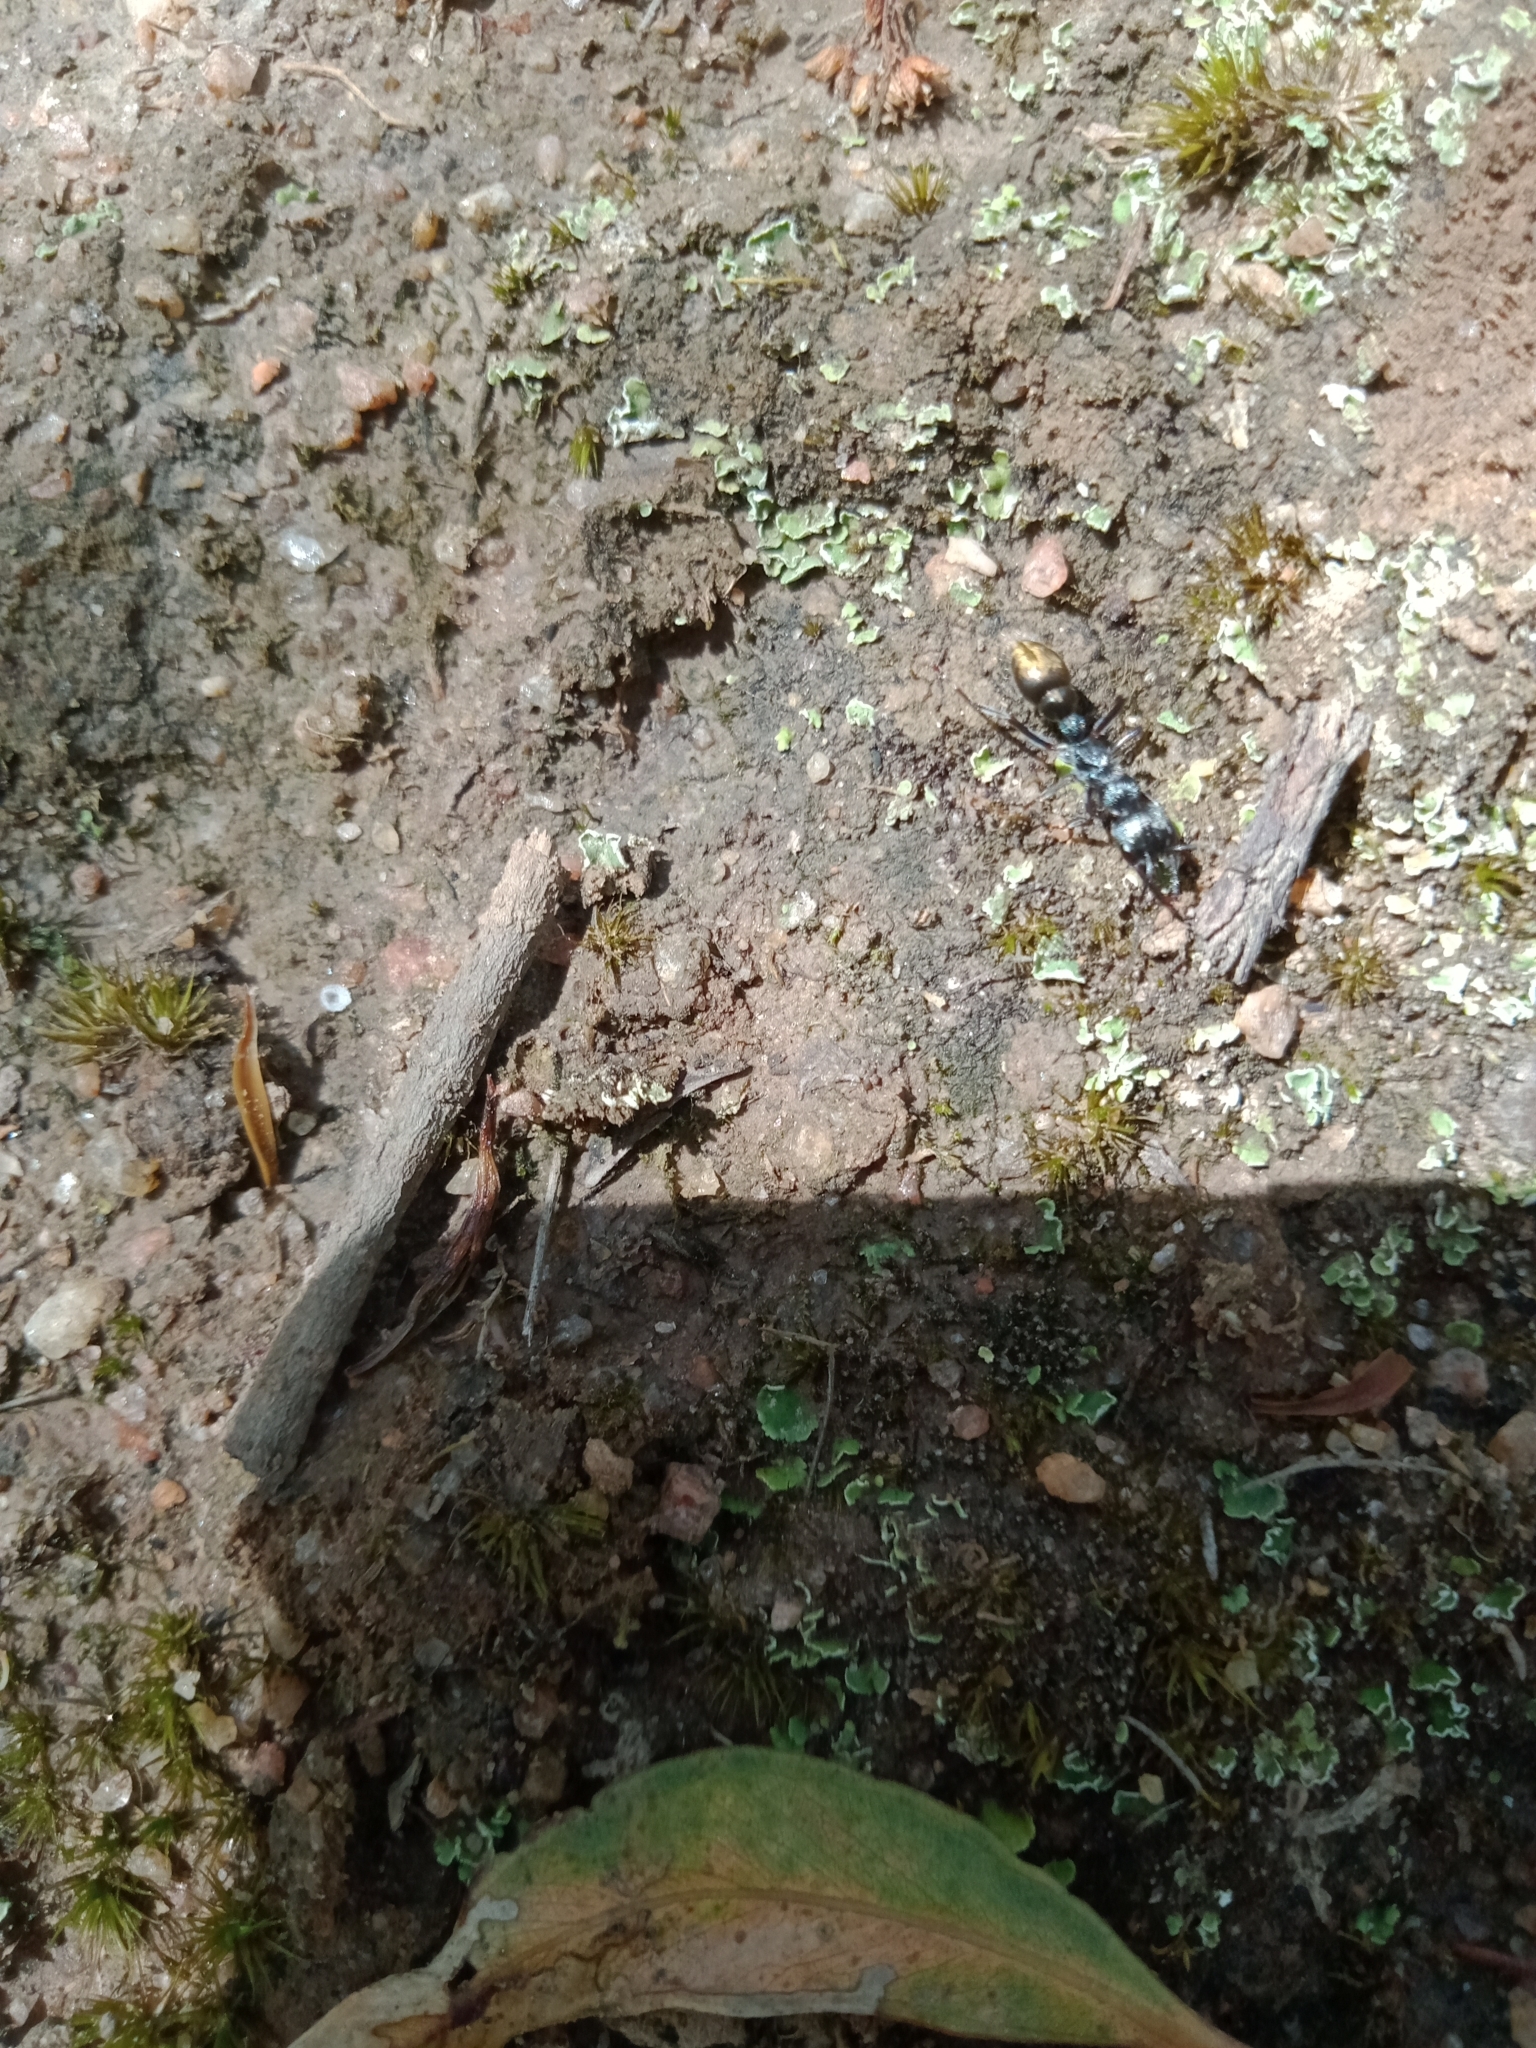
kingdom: Animalia
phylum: Arthropoda
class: Insecta
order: Hymenoptera
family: Formicidae
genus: Myrmecia
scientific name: Myrmecia piliventris
